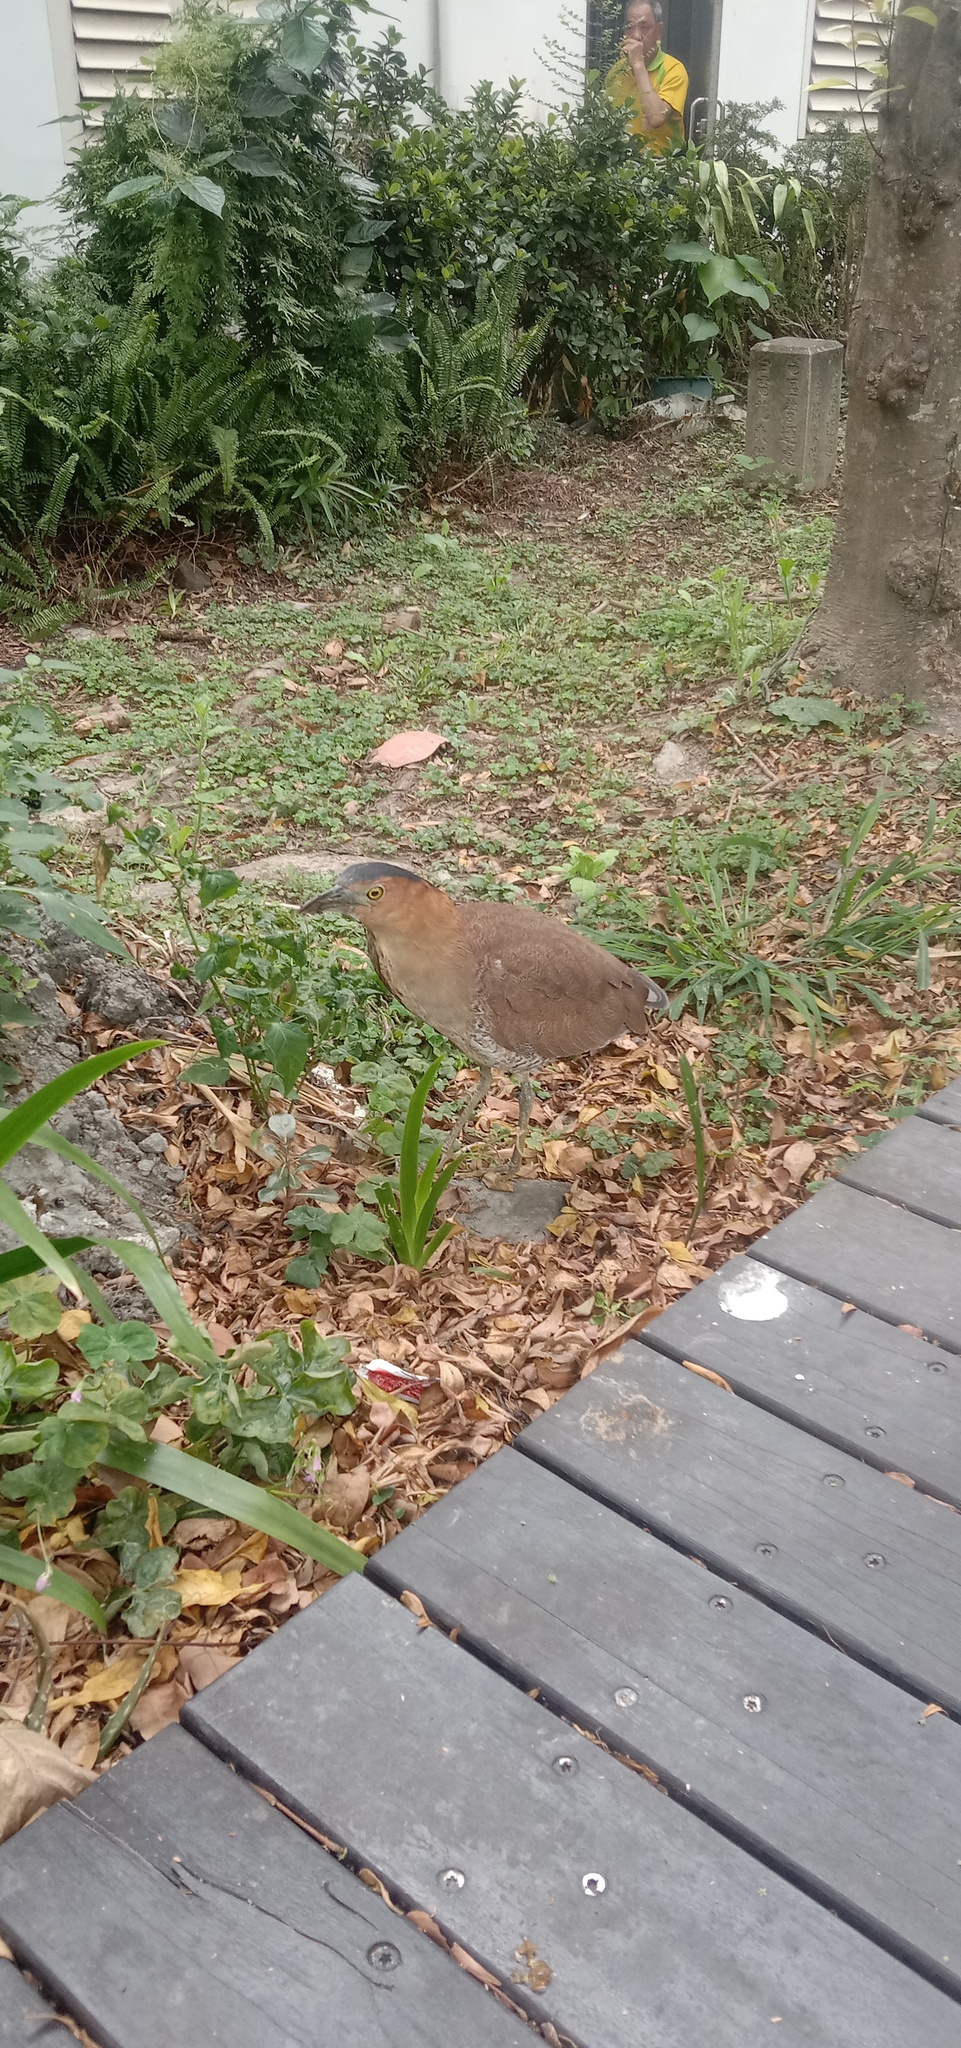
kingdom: Animalia
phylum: Chordata
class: Aves
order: Pelecaniformes
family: Ardeidae
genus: Gorsachius
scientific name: Gorsachius melanolophus
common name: Malayan night heron
